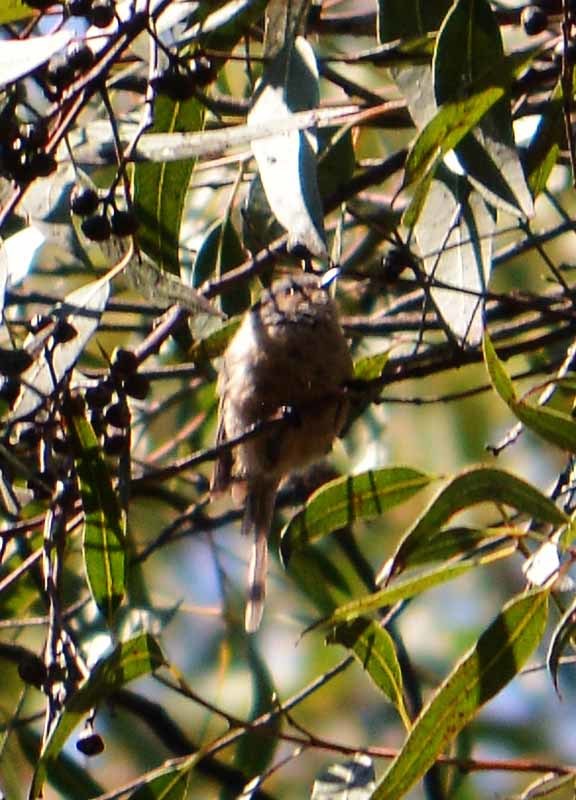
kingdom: Animalia
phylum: Chordata
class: Aves
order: Passeriformes
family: Aegithalidae
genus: Psaltriparus
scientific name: Psaltriparus minimus
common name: American bushtit
